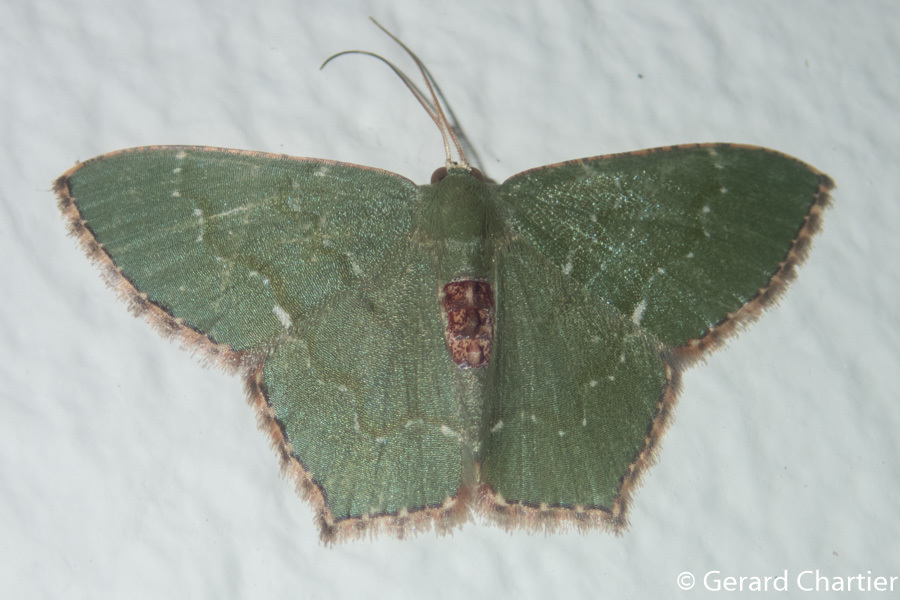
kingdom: Animalia
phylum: Arthropoda
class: Insecta
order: Lepidoptera
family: Geometridae
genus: Hemithea
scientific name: Hemithea tritonaria
